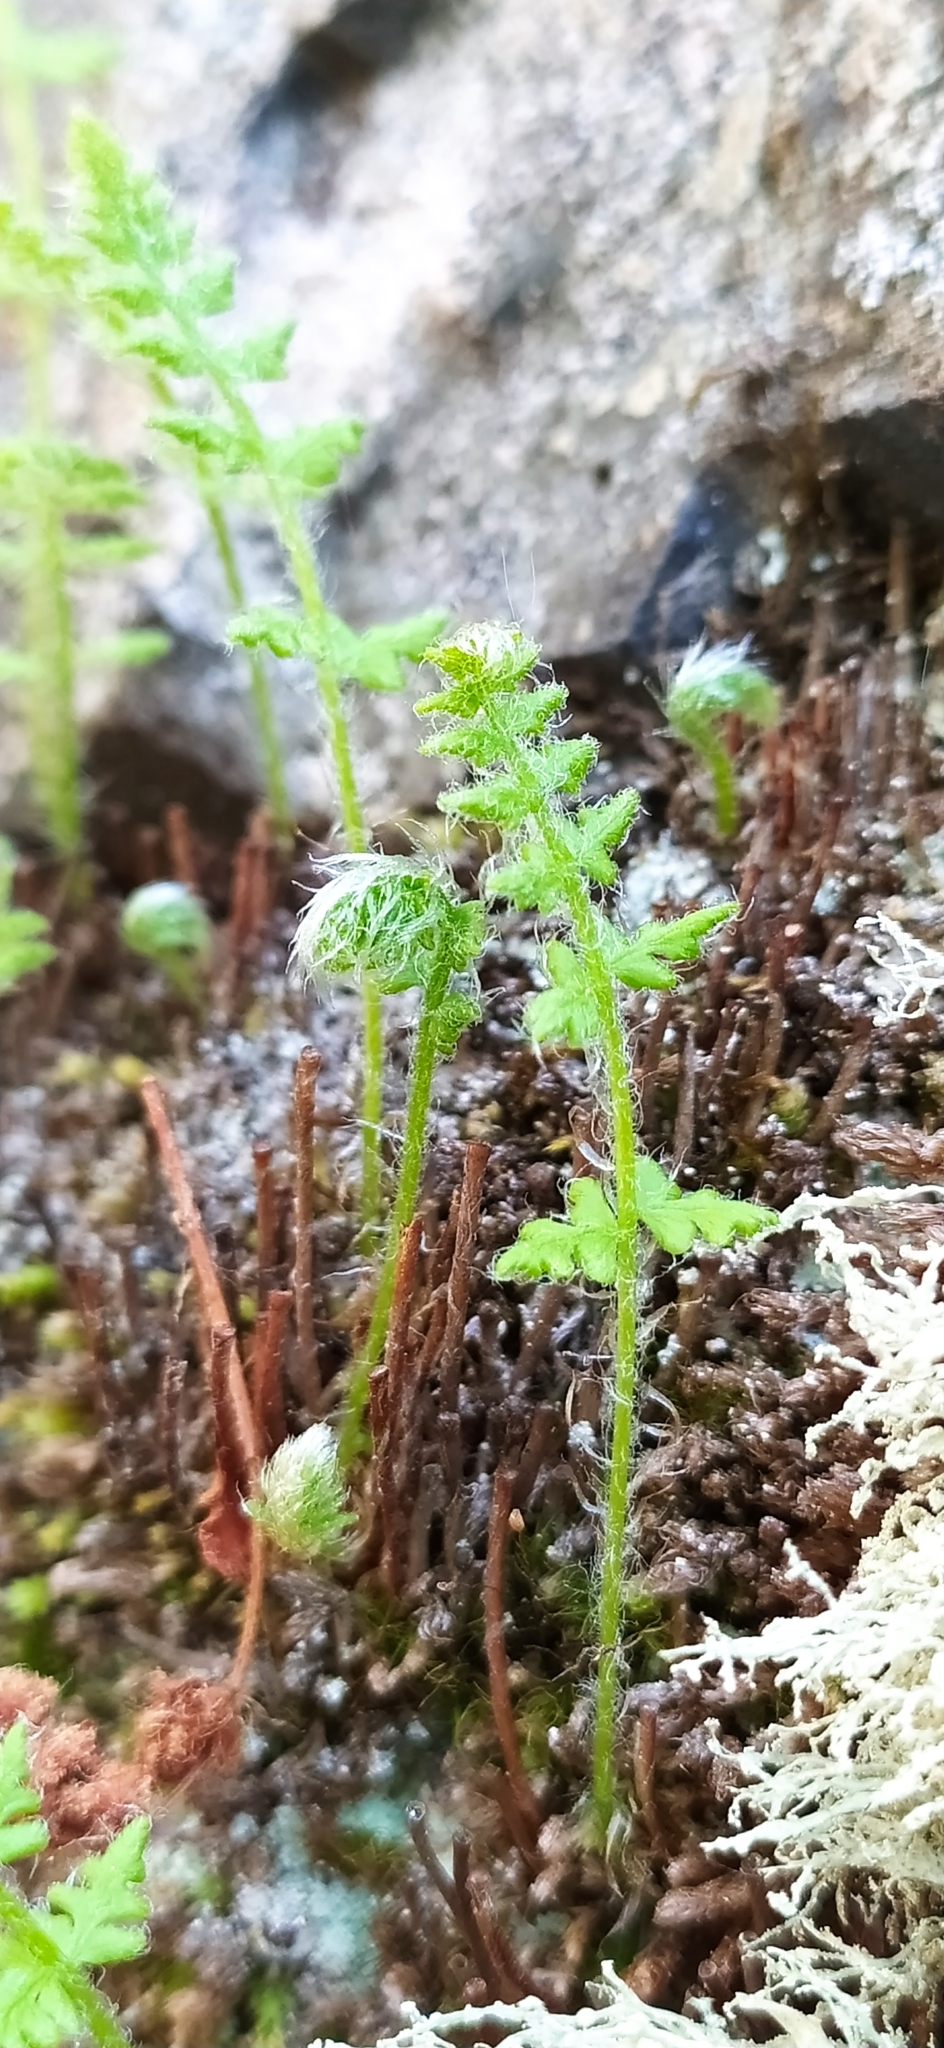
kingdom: Plantae
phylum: Tracheophyta
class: Polypodiopsida
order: Polypodiales
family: Woodsiaceae
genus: Woodsia
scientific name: Woodsia ilvensis
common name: Fragrant woodsia
